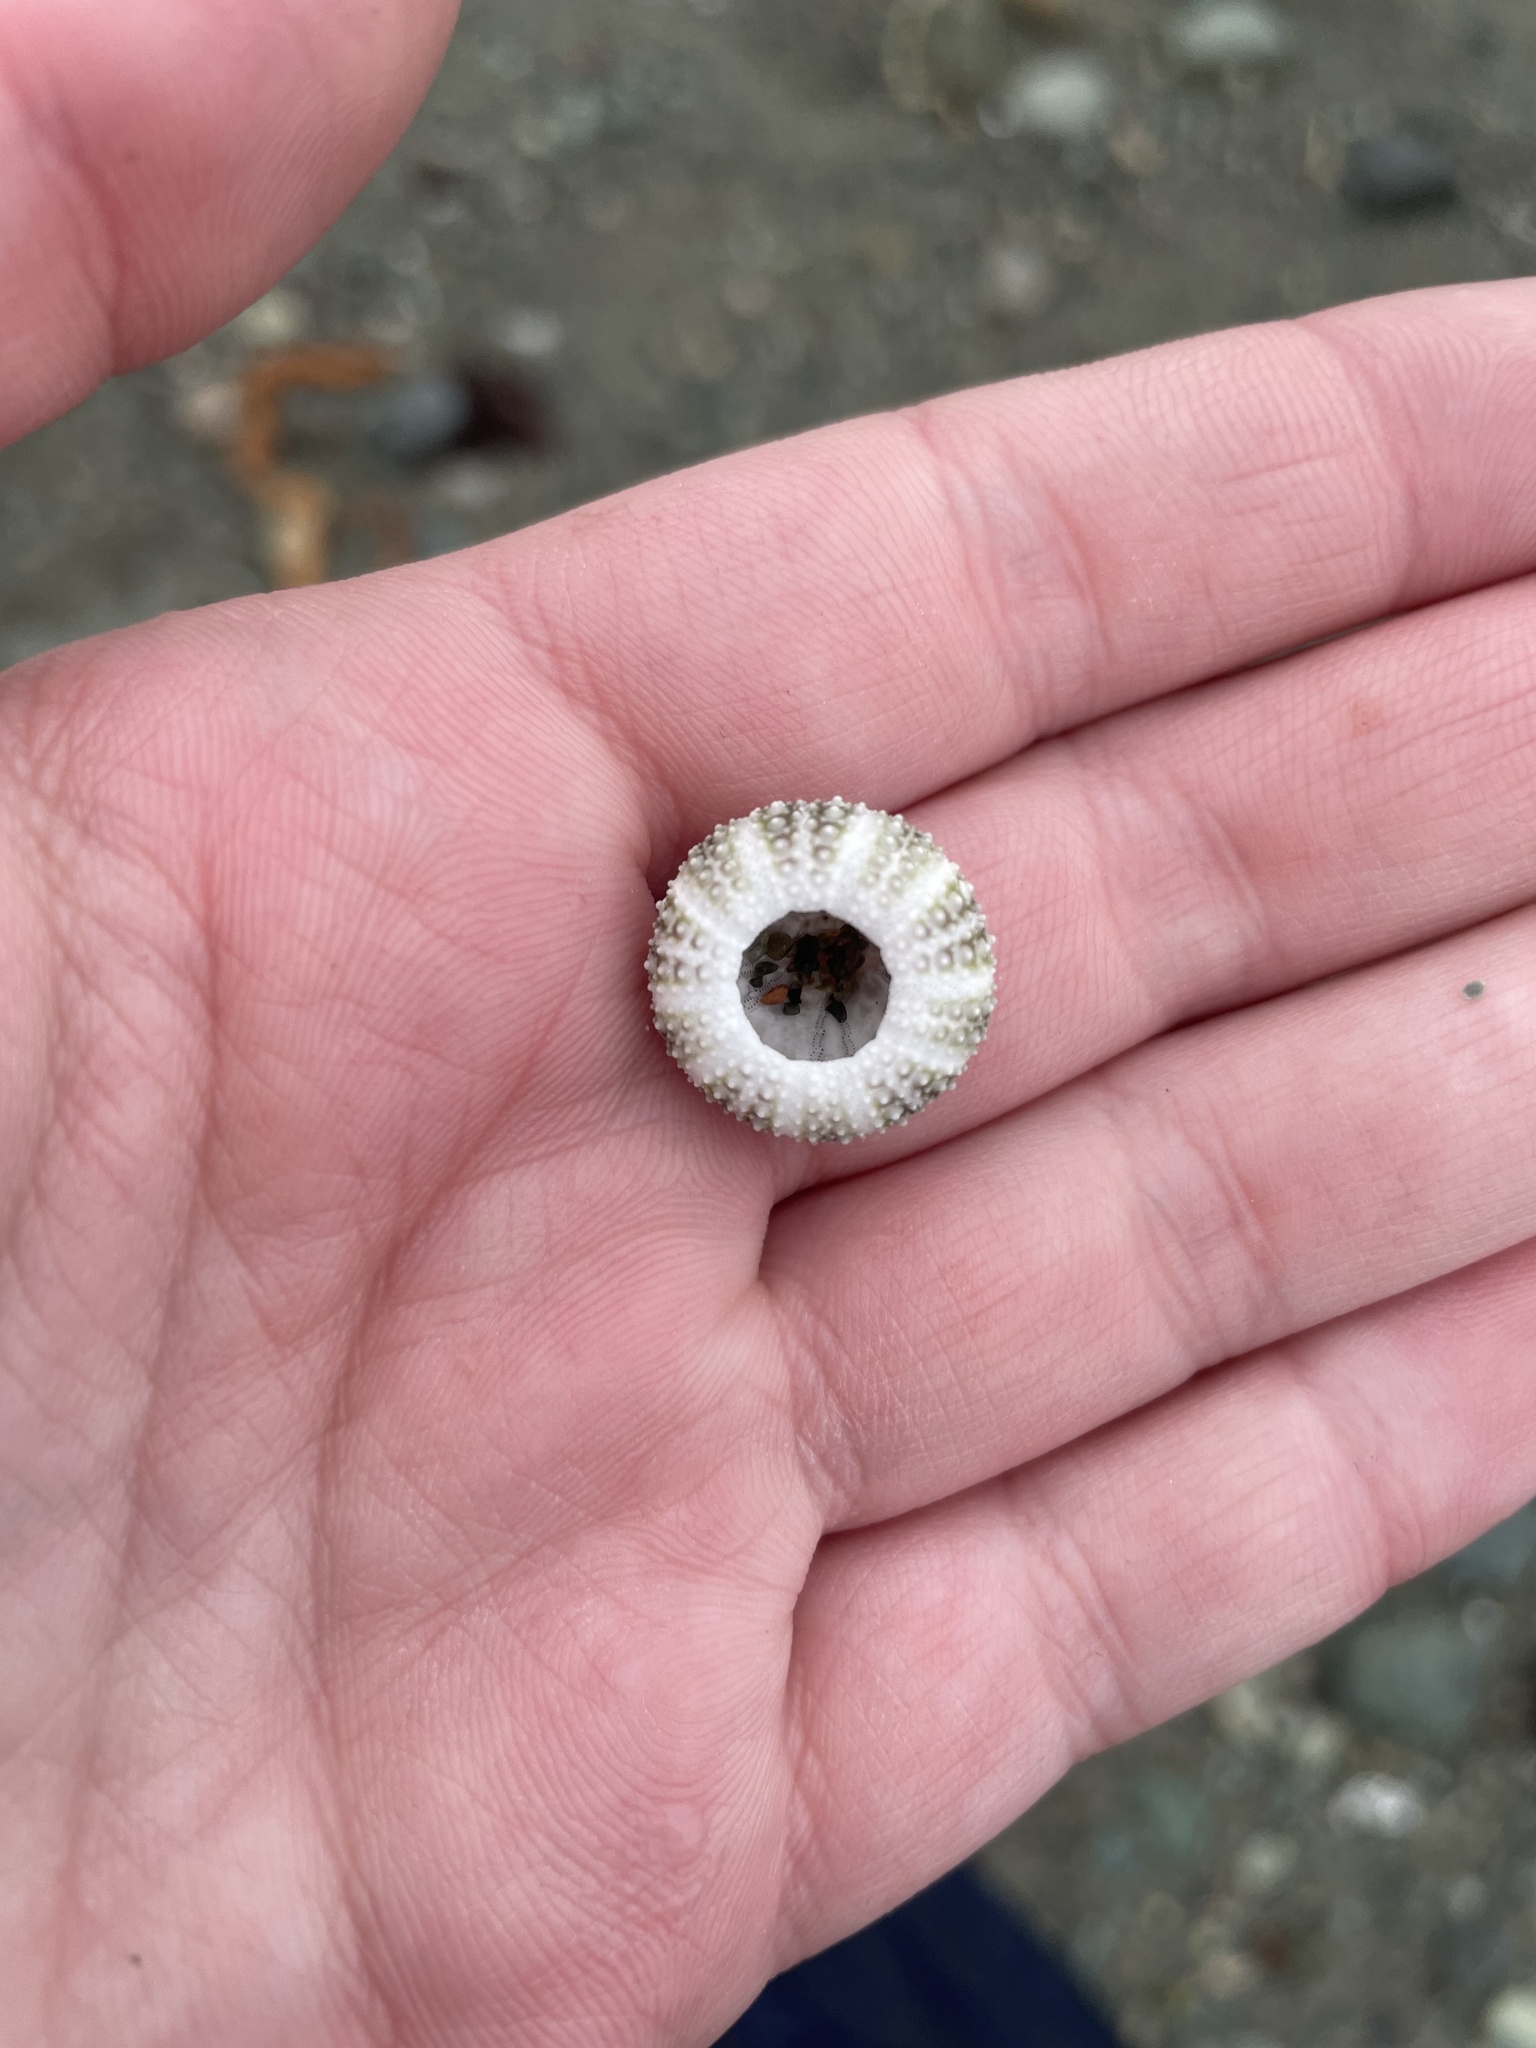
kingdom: Animalia
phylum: Echinodermata
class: Echinoidea
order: Camarodonta
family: Strongylocentrotidae
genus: Strongylocentrotus
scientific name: Strongylocentrotus droebachiensis
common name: Northern sea urchin
